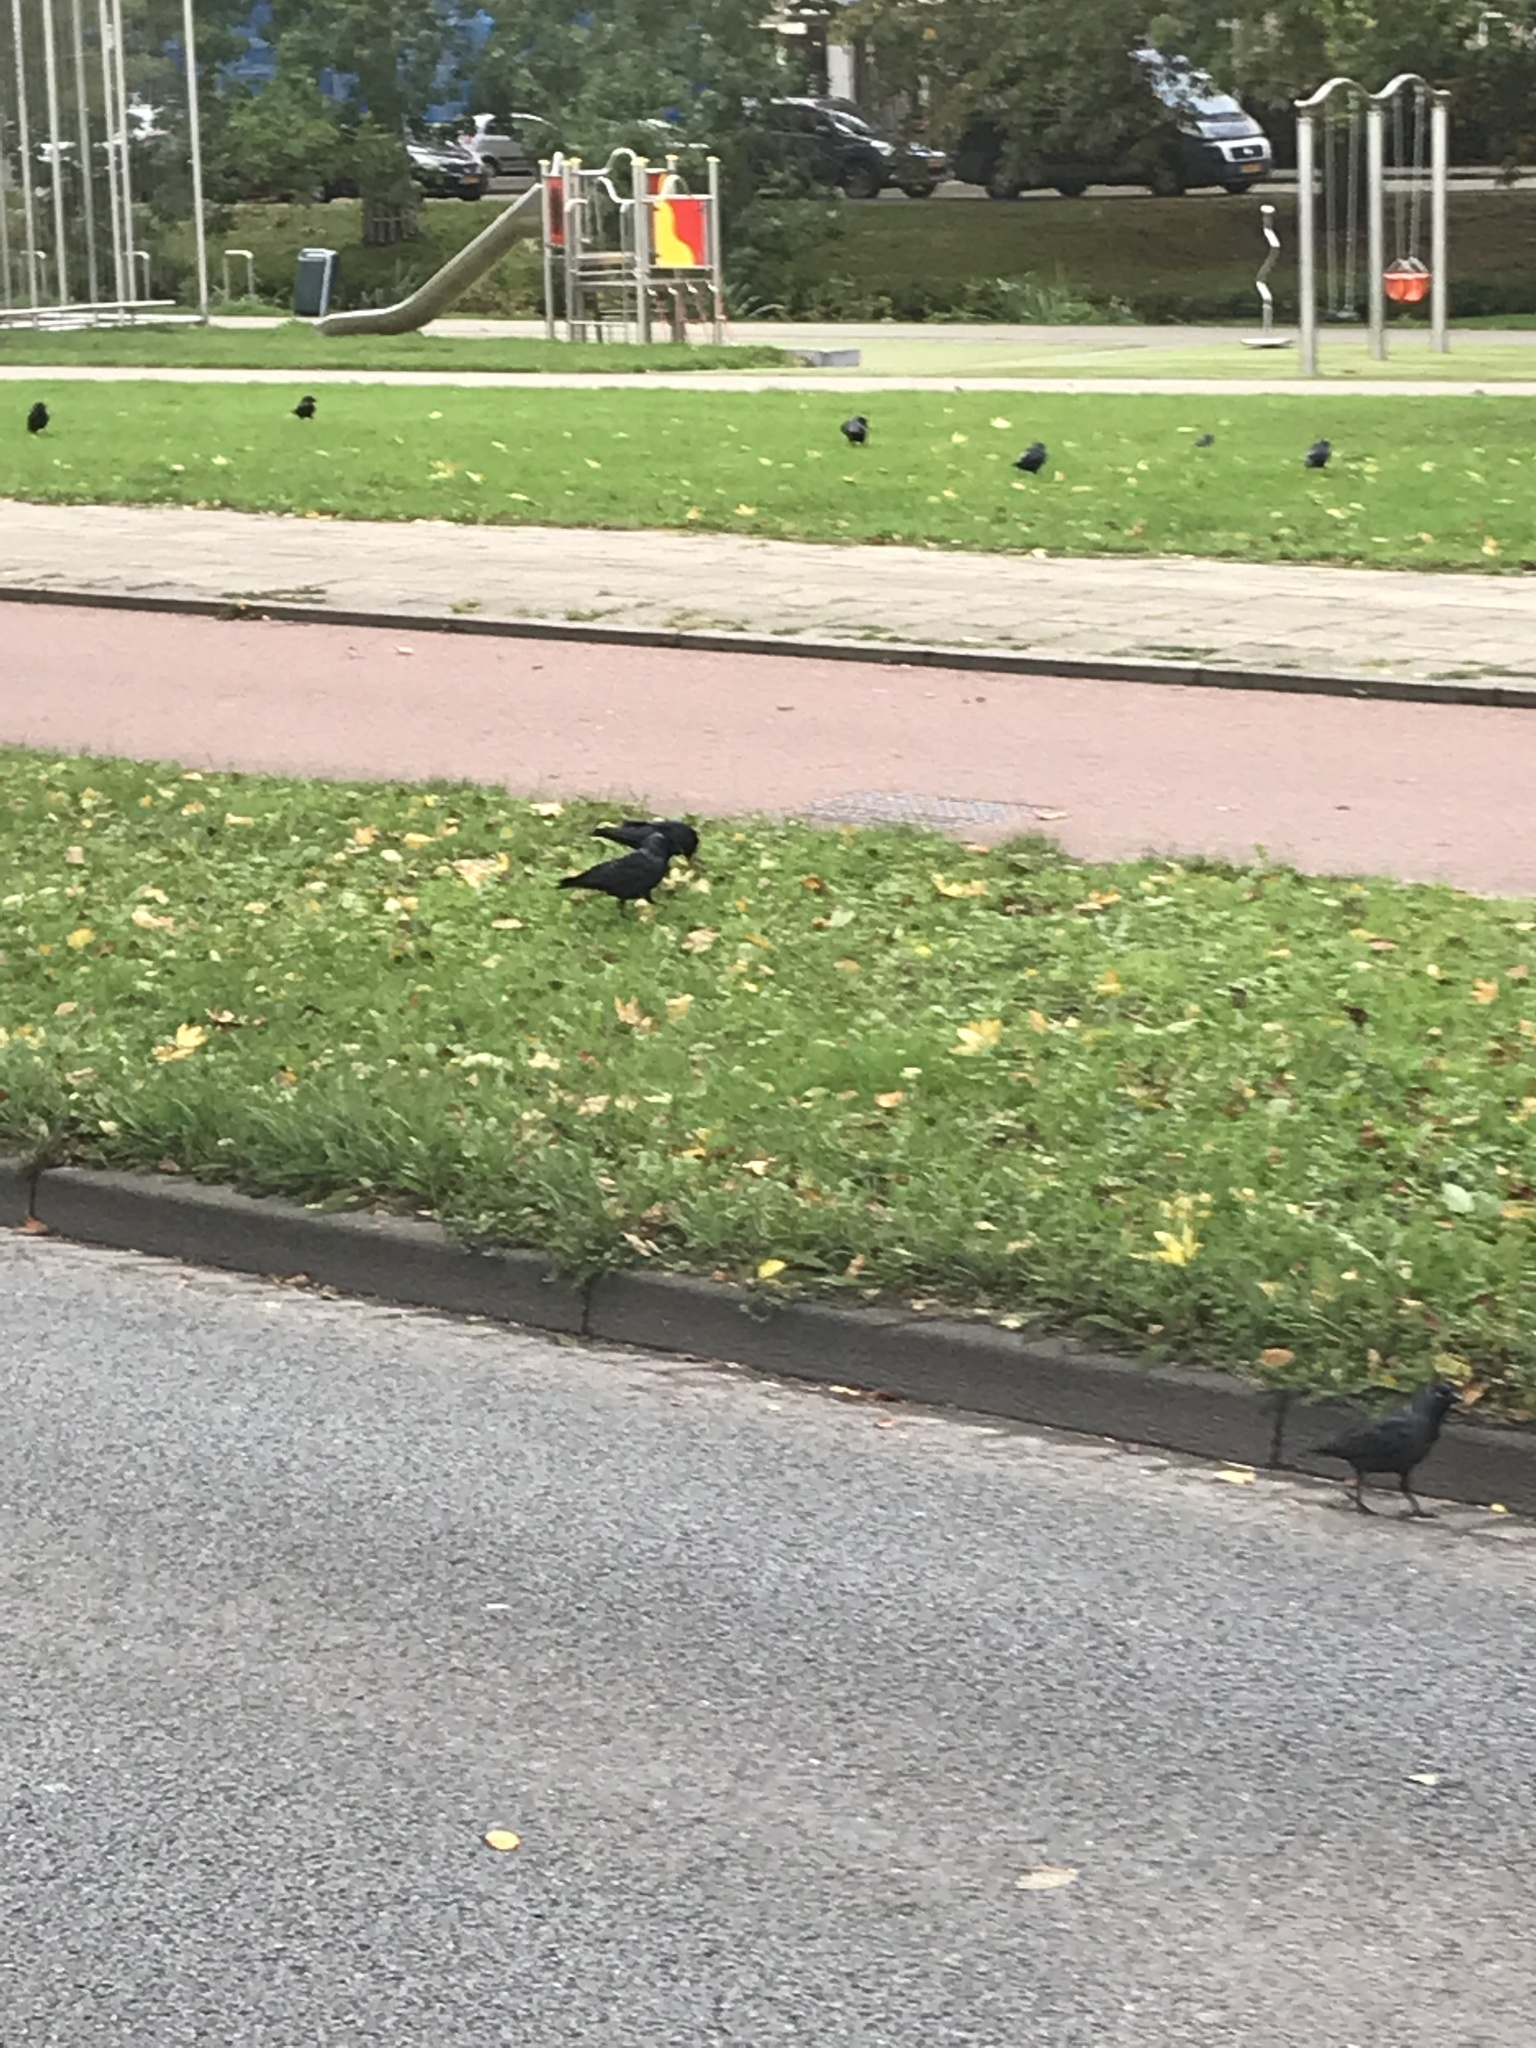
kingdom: Animalia
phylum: Chordata
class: Aves
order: Passeriformes
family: Corvidae
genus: Coloeus
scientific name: Coloeus monedula
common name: Western jackdaw
